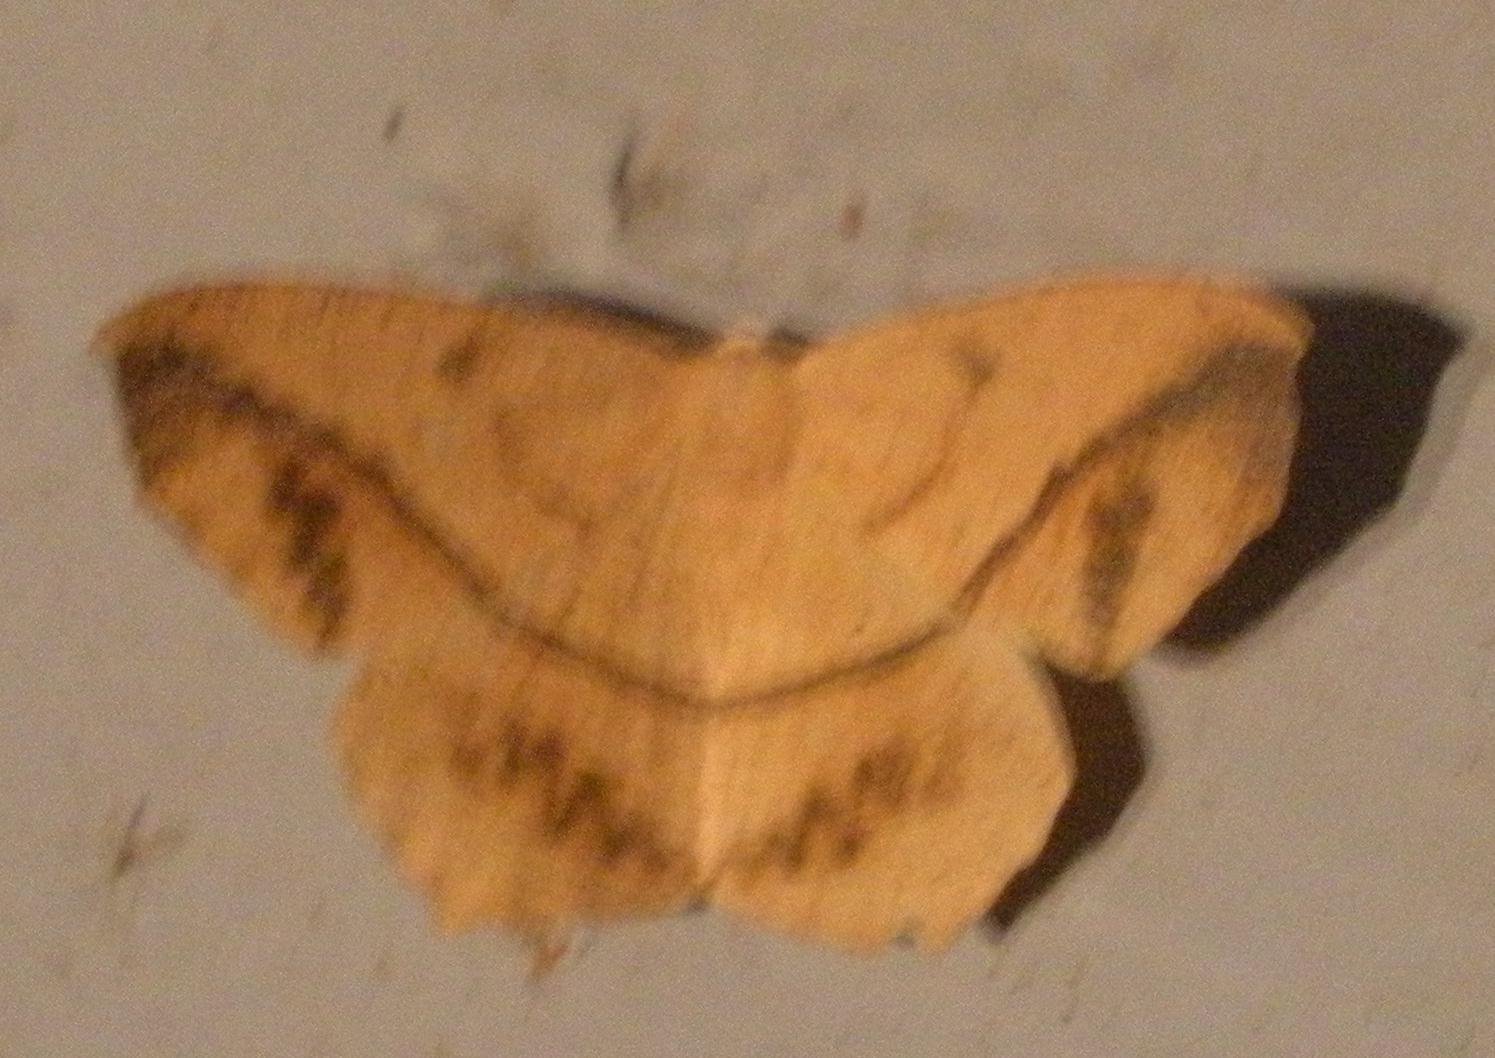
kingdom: Animalia
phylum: Arthropoda
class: Insecta
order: Lepidoptera
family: Geometridae
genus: Prochoerodes
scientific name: Prochoerodes lineola
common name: Large maple spanworm
